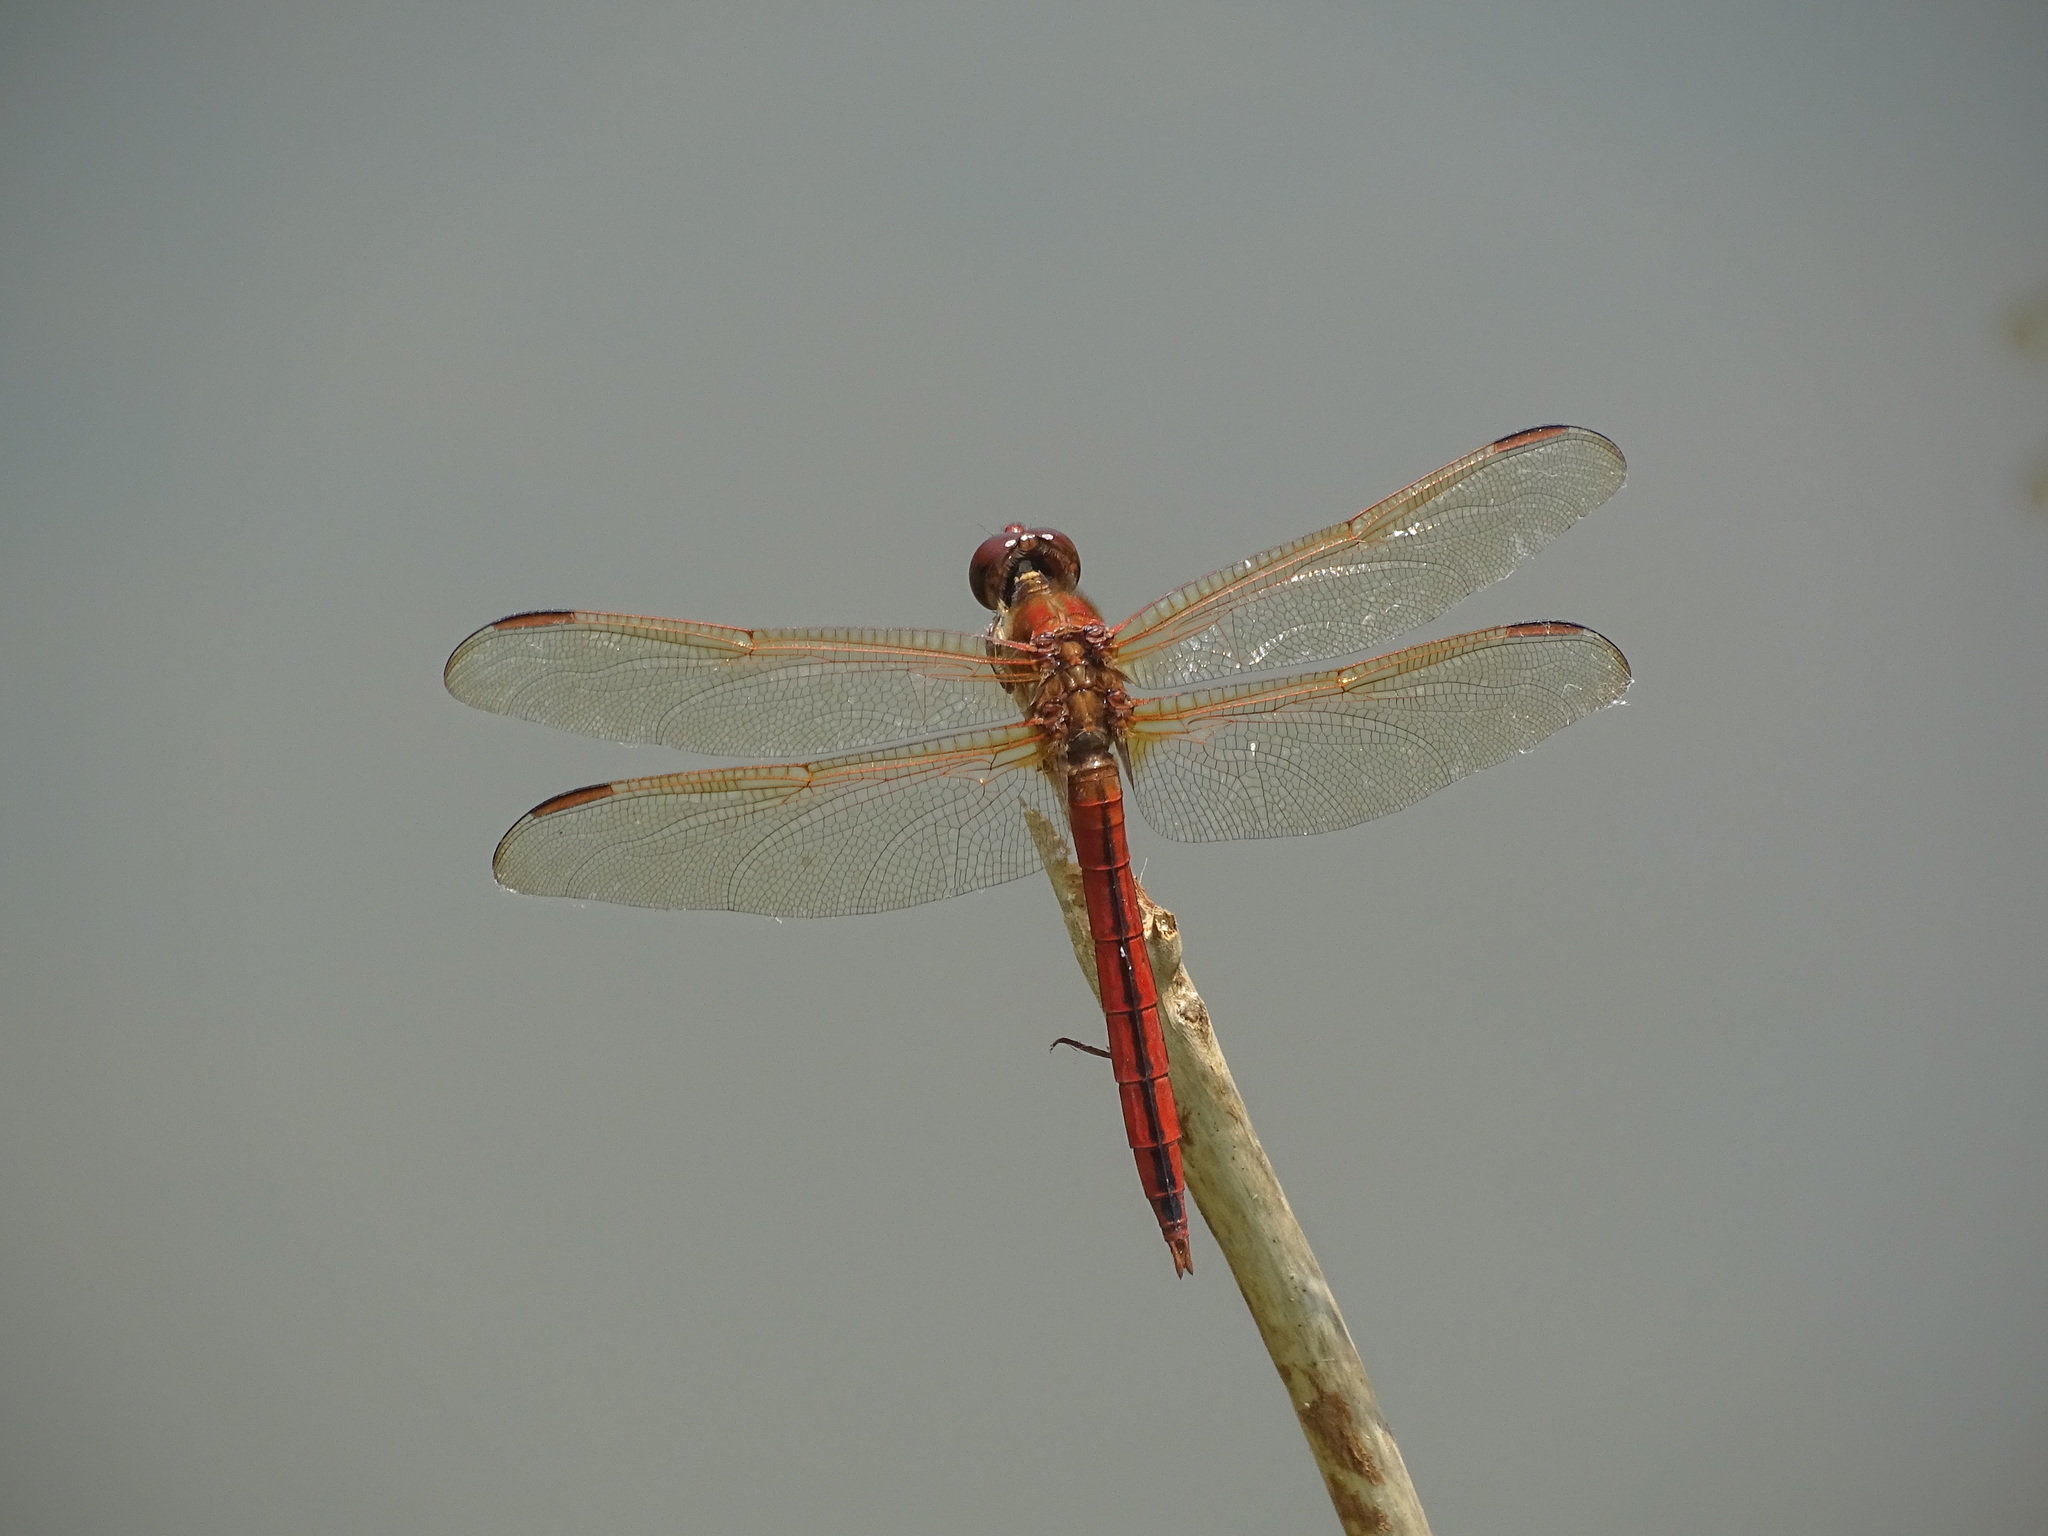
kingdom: Animalia
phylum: Arthropoda
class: Insecta
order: Odonata
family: Libellulidae
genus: Libellula
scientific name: Libellula needhami
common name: Needham's skimmer
